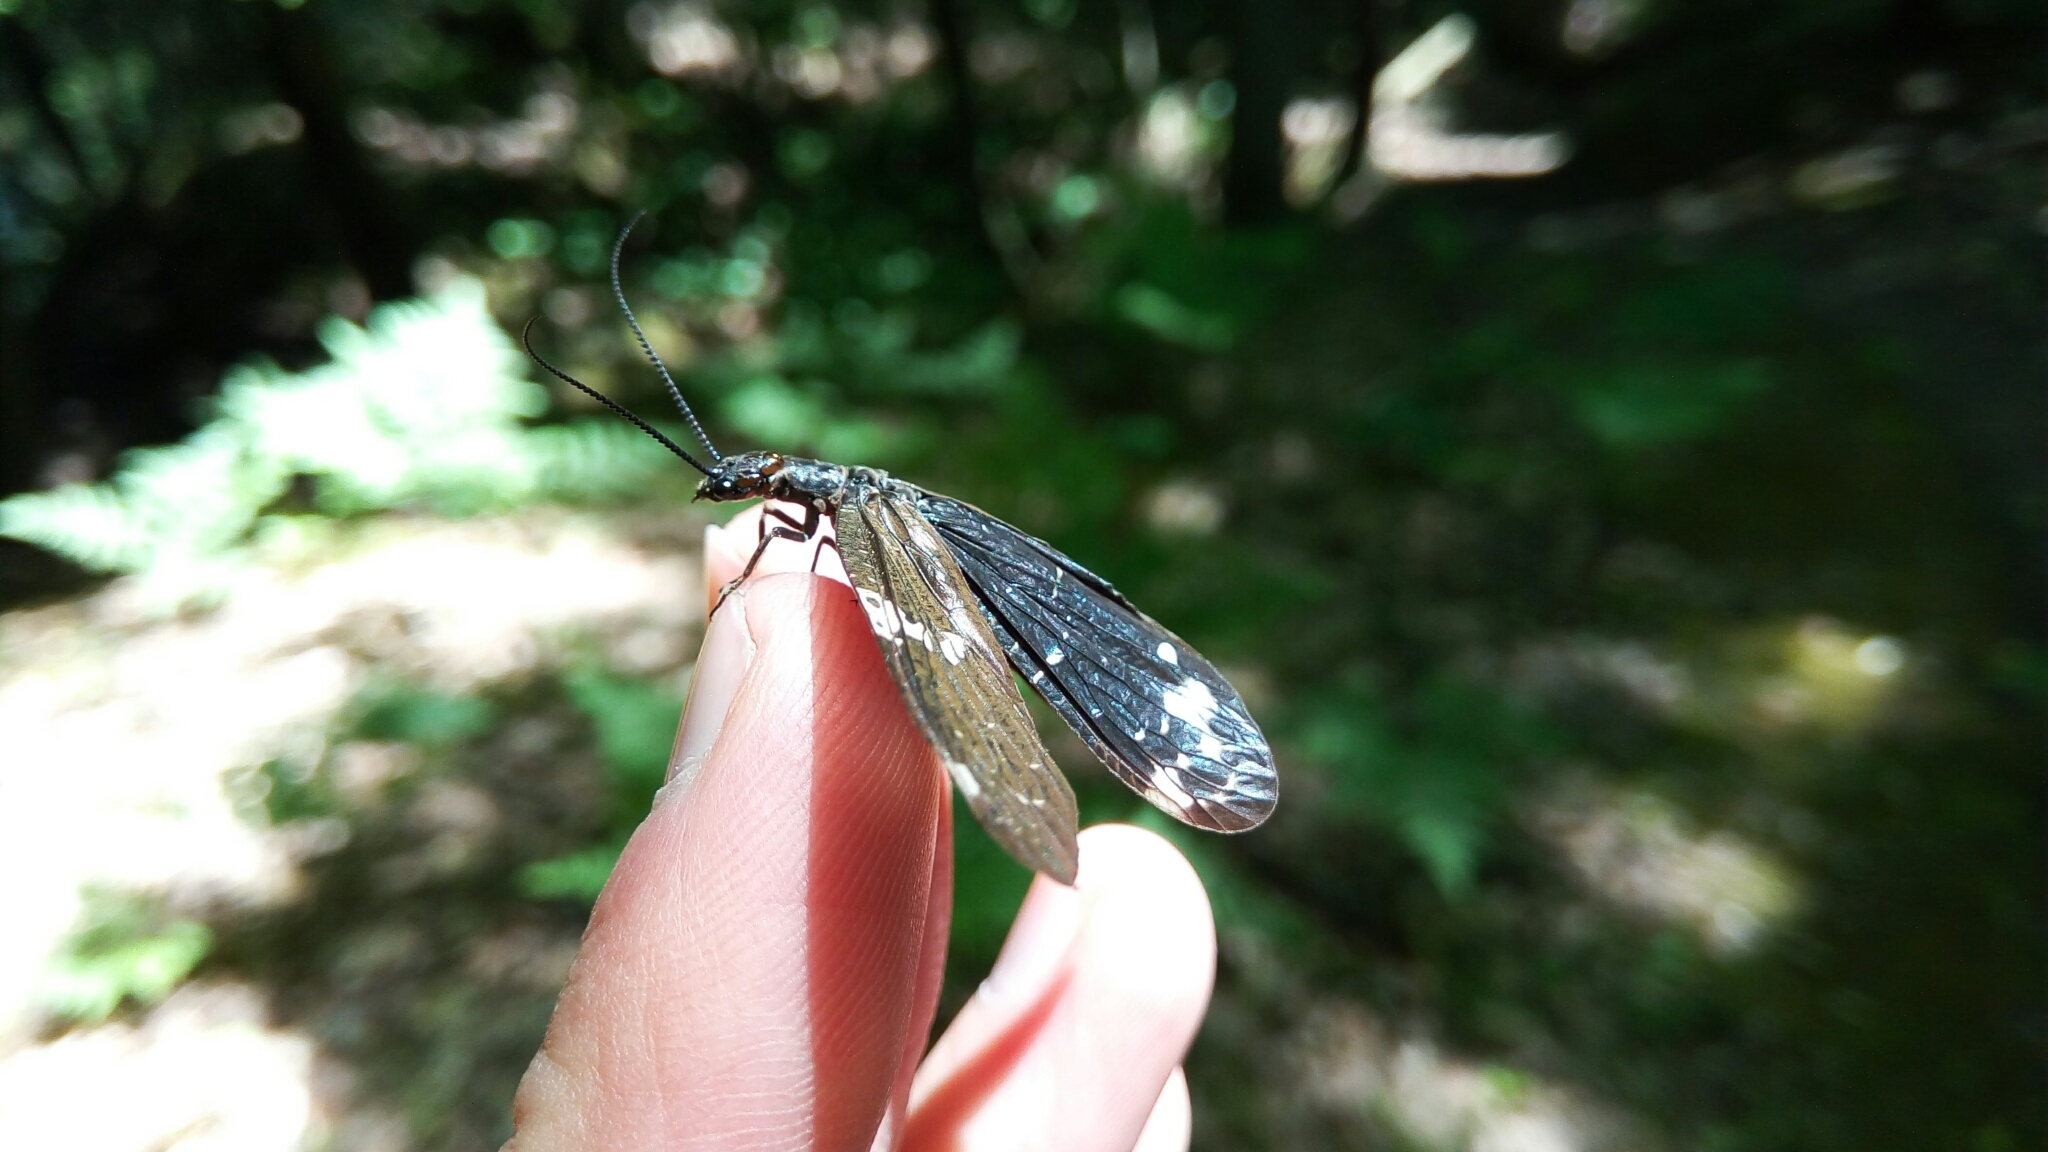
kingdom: Animalia
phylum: Arthropoda
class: Insecta
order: Megaloptera
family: Corydalidae
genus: Nigronia
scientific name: Nigronia serricornis
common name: Serrate dark fishfly
